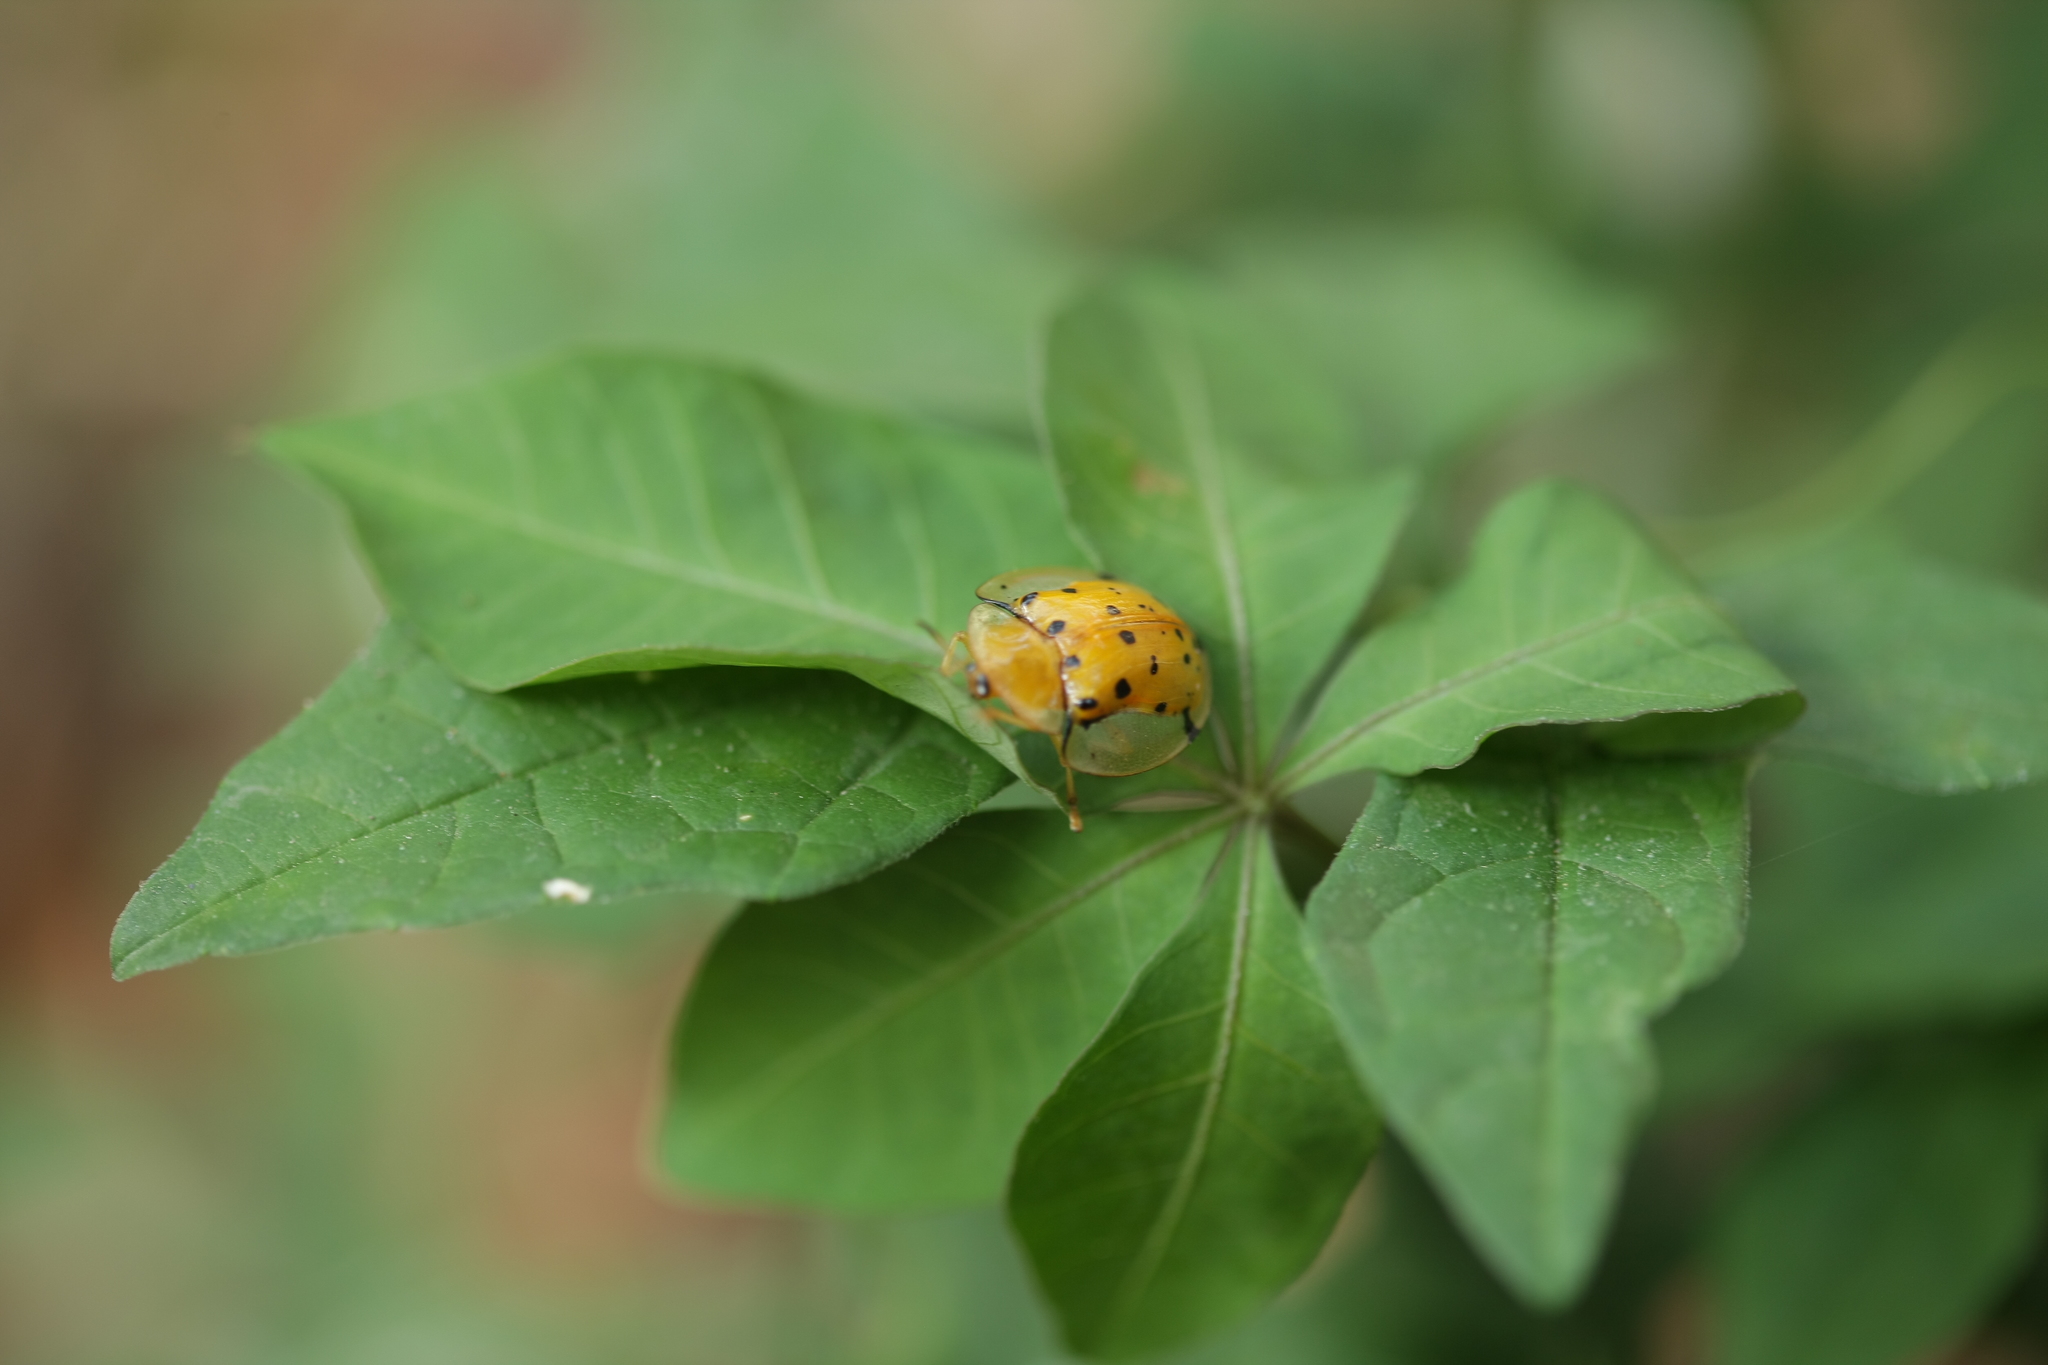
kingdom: Animalia
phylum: Arthropoda
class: Insecta
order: Coleoptera
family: Chrysomelidae
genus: Aspidimorpha
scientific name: Aspidimorpha miliaris
